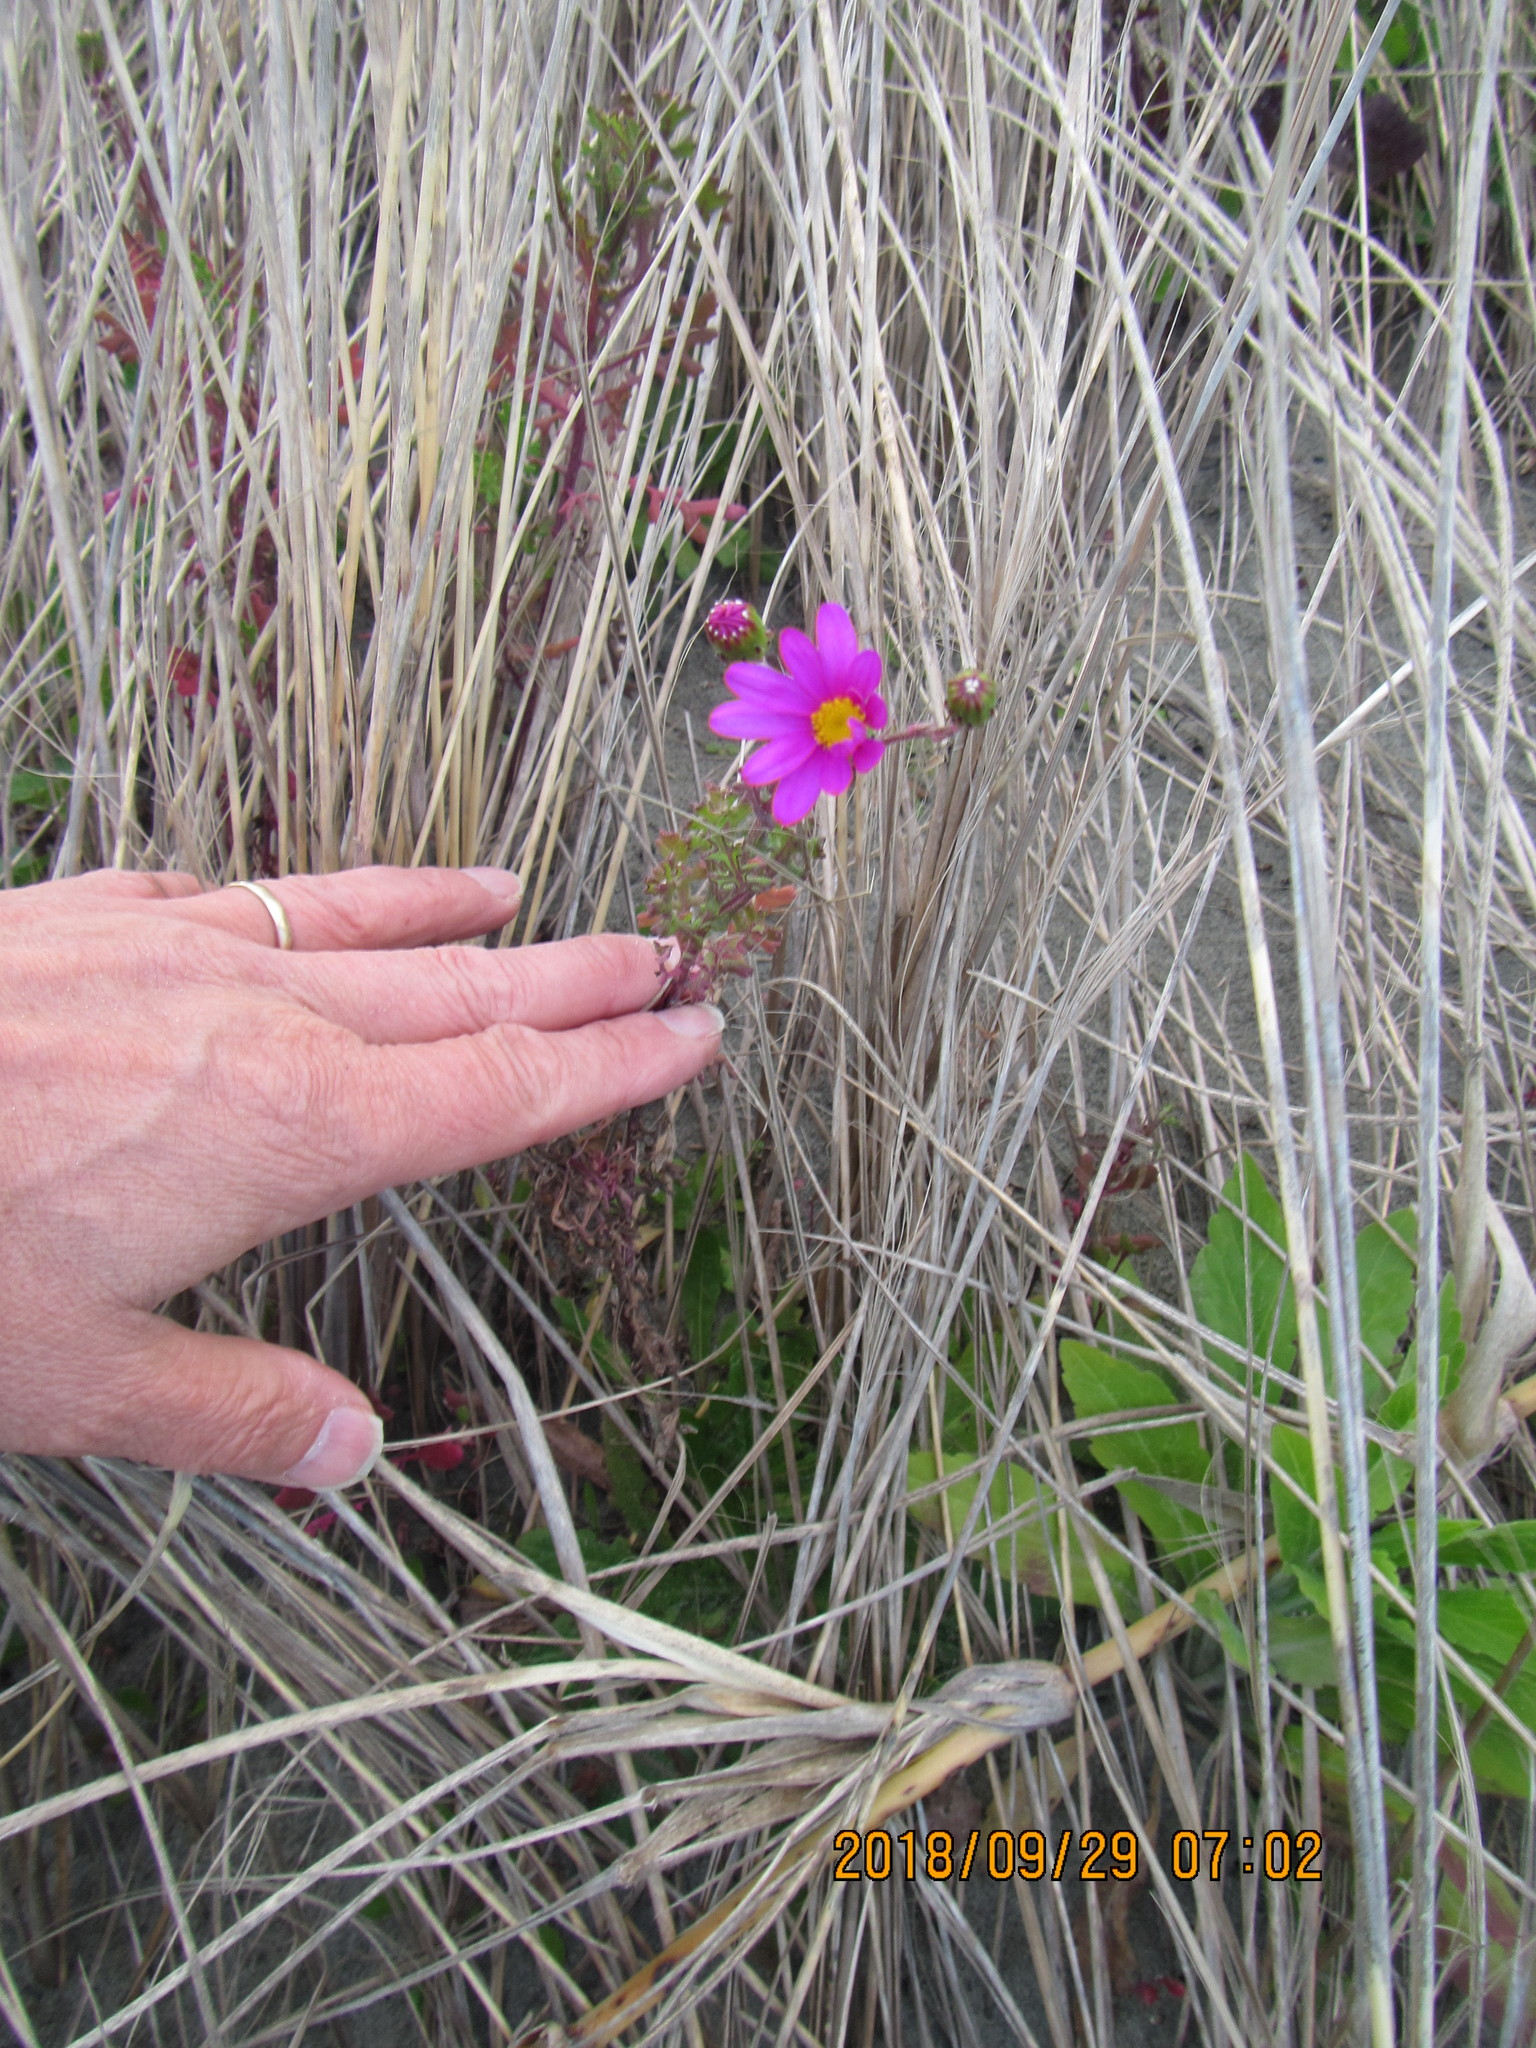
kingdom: Plantae
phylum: Tracheophyta
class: Magnoliopsida
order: Asterales
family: Asteraceae
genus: Senecio
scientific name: Senecio elegans
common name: Purple groundsel
